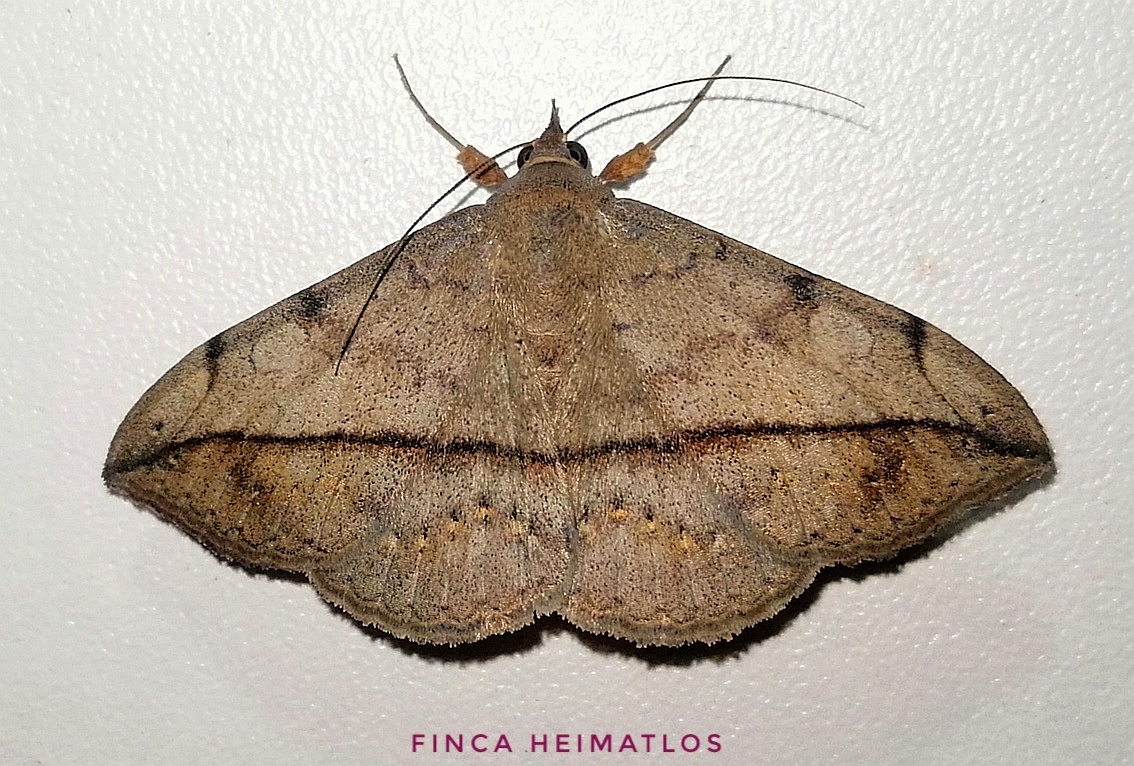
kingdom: Animalia
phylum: Arthropoda
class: Insecta
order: Lepidoptera
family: Erebidae
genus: Anticarsia
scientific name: Anticarsia gemmatalis
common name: Cutworm moth
